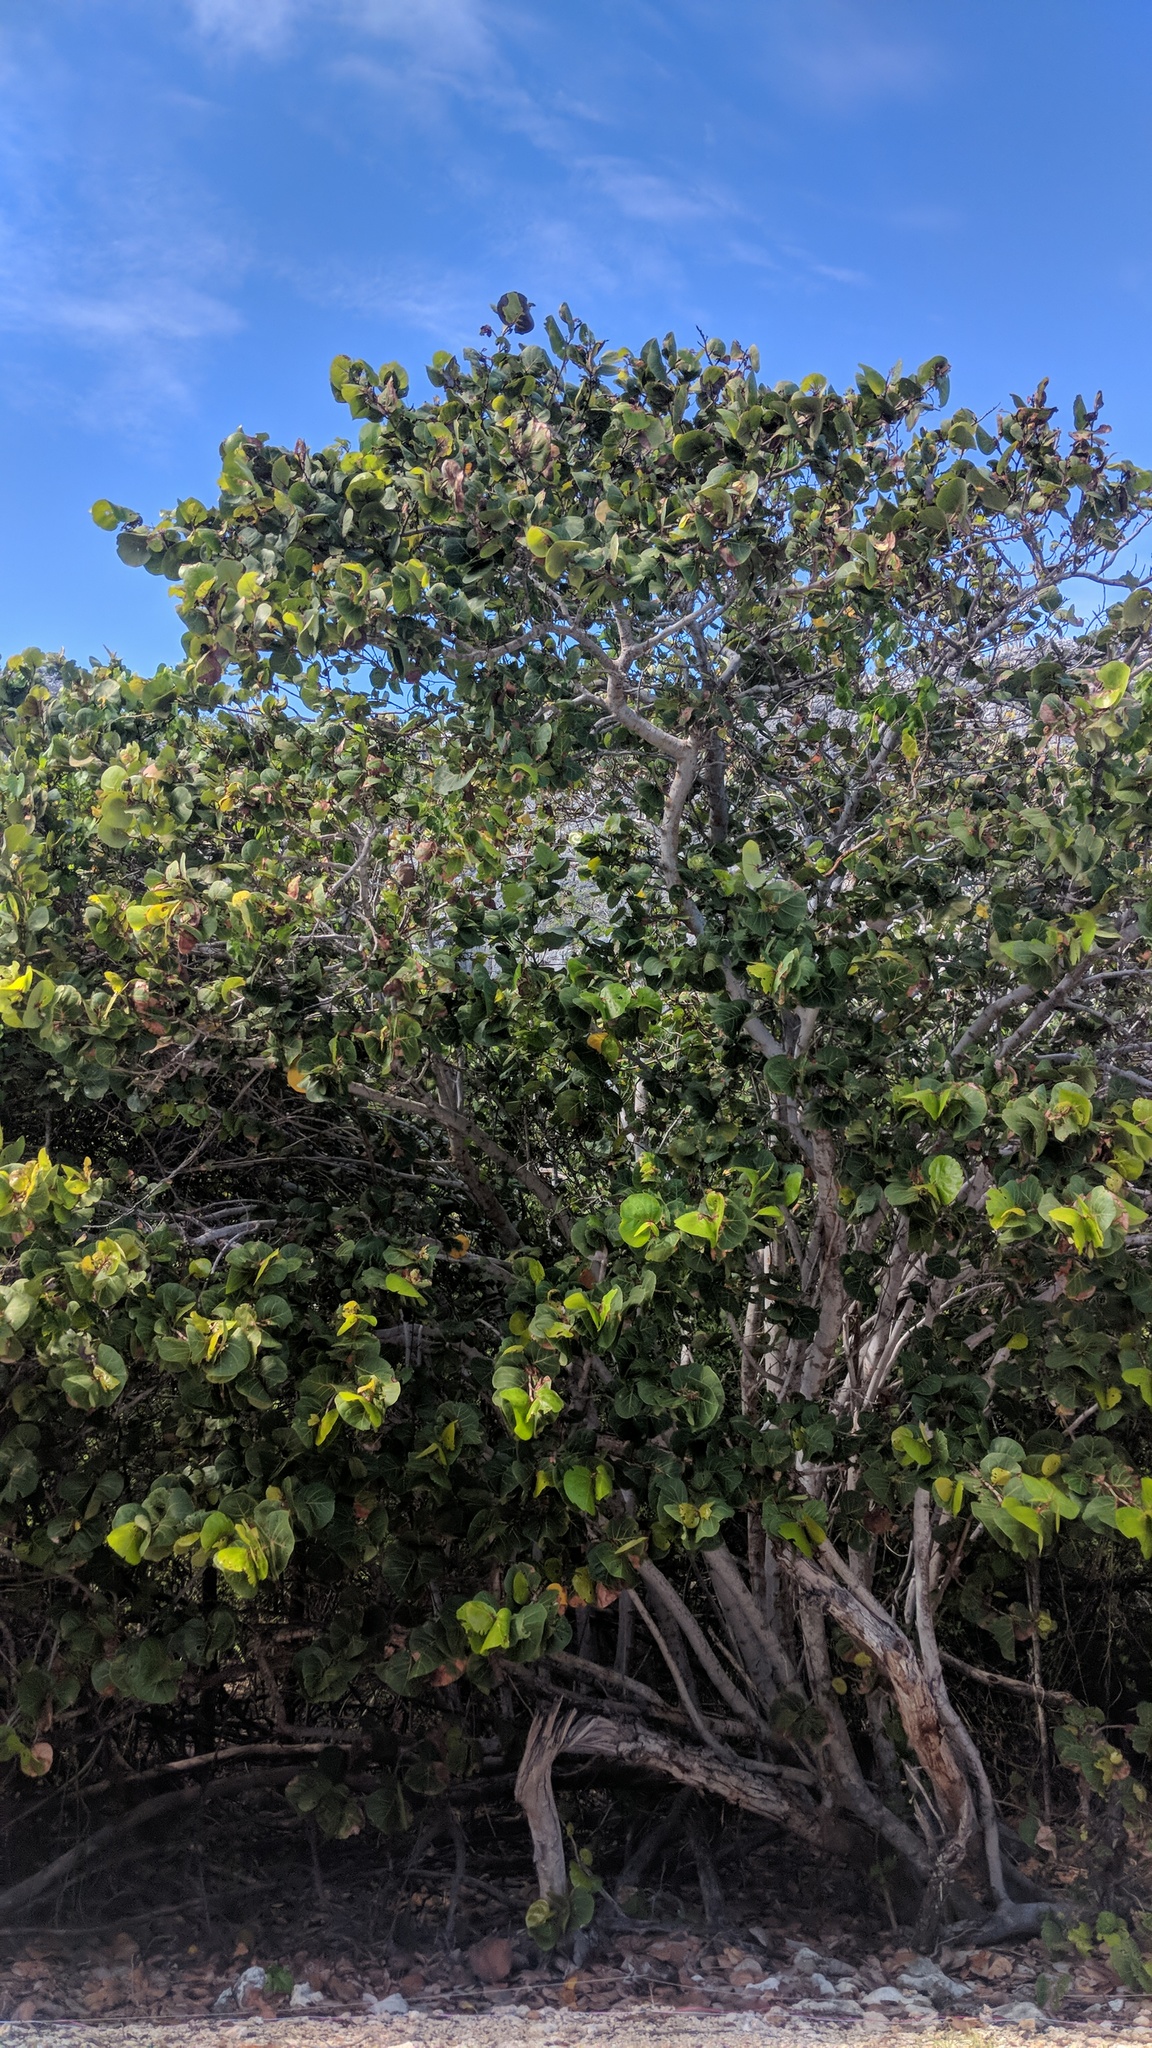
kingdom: Plantae
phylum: Tracheophyta
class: Magnoliopsida
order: Caryophyllales
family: Polygonaceae
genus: Coccoloba
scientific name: Coccoloba uvifera
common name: Seagrape
